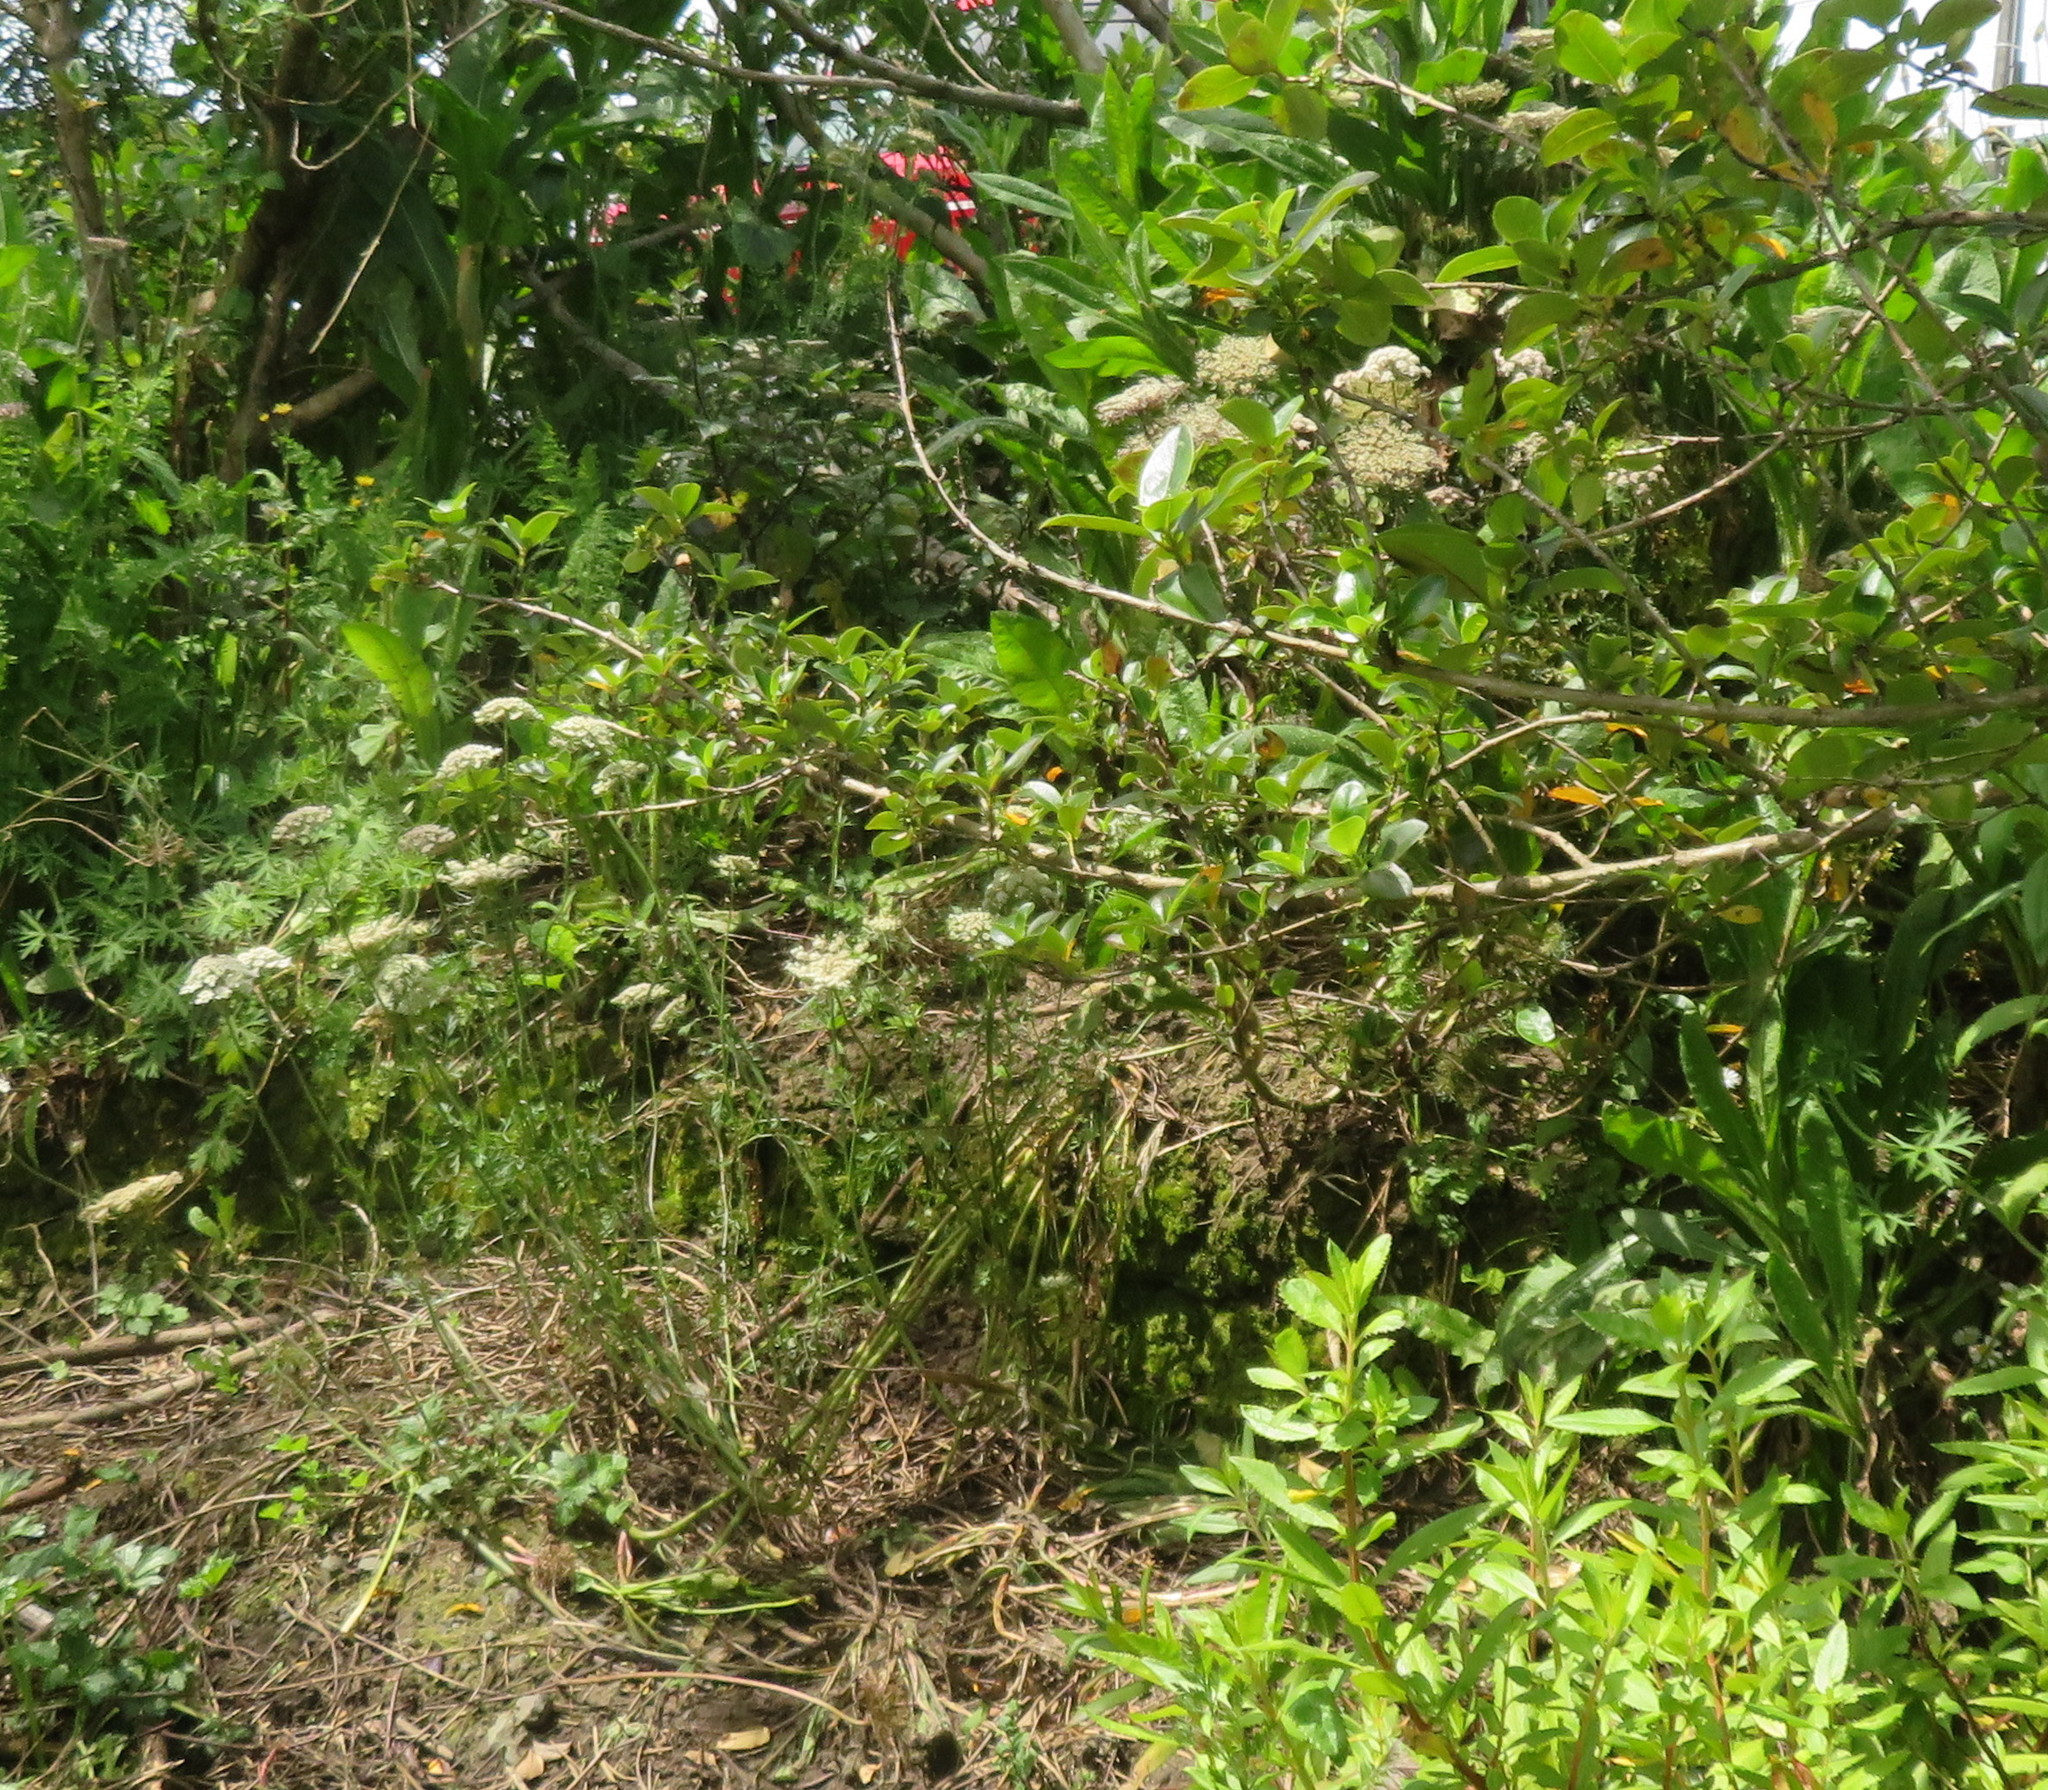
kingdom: Plantae
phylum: Tracheophyta
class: Magnoliopsida
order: Apiales
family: Apiaceae
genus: Daucus
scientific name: Daucus carota
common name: Wild carrot
